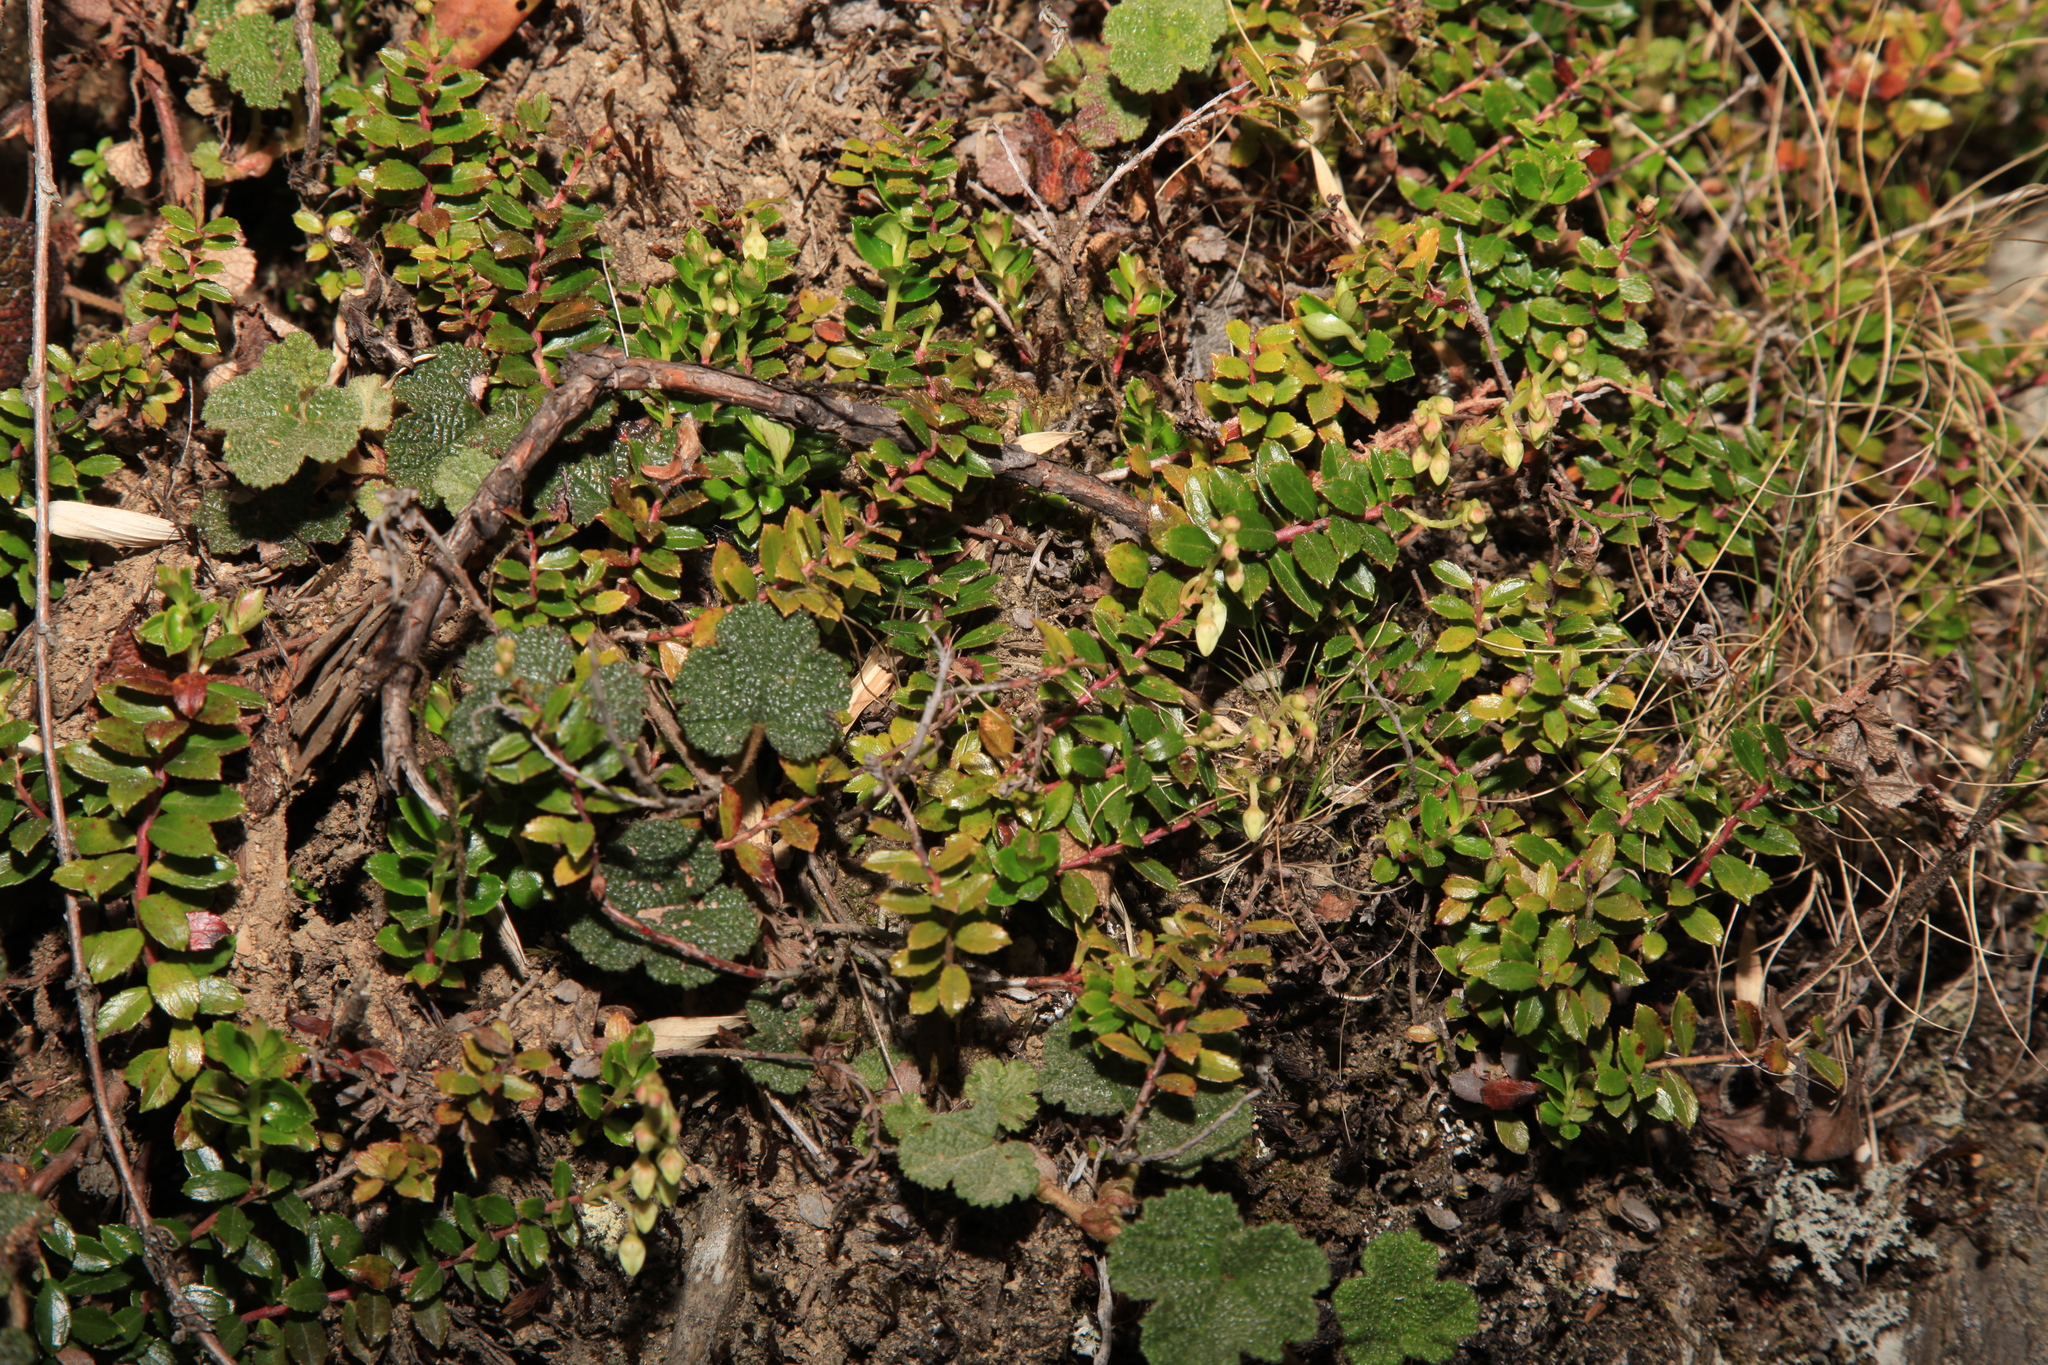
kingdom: Plantae
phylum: Tracheophyta
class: Magnoliopsida
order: Caryophyllales
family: Caryophyllaceae
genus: Silene
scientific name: Silene baccifera
